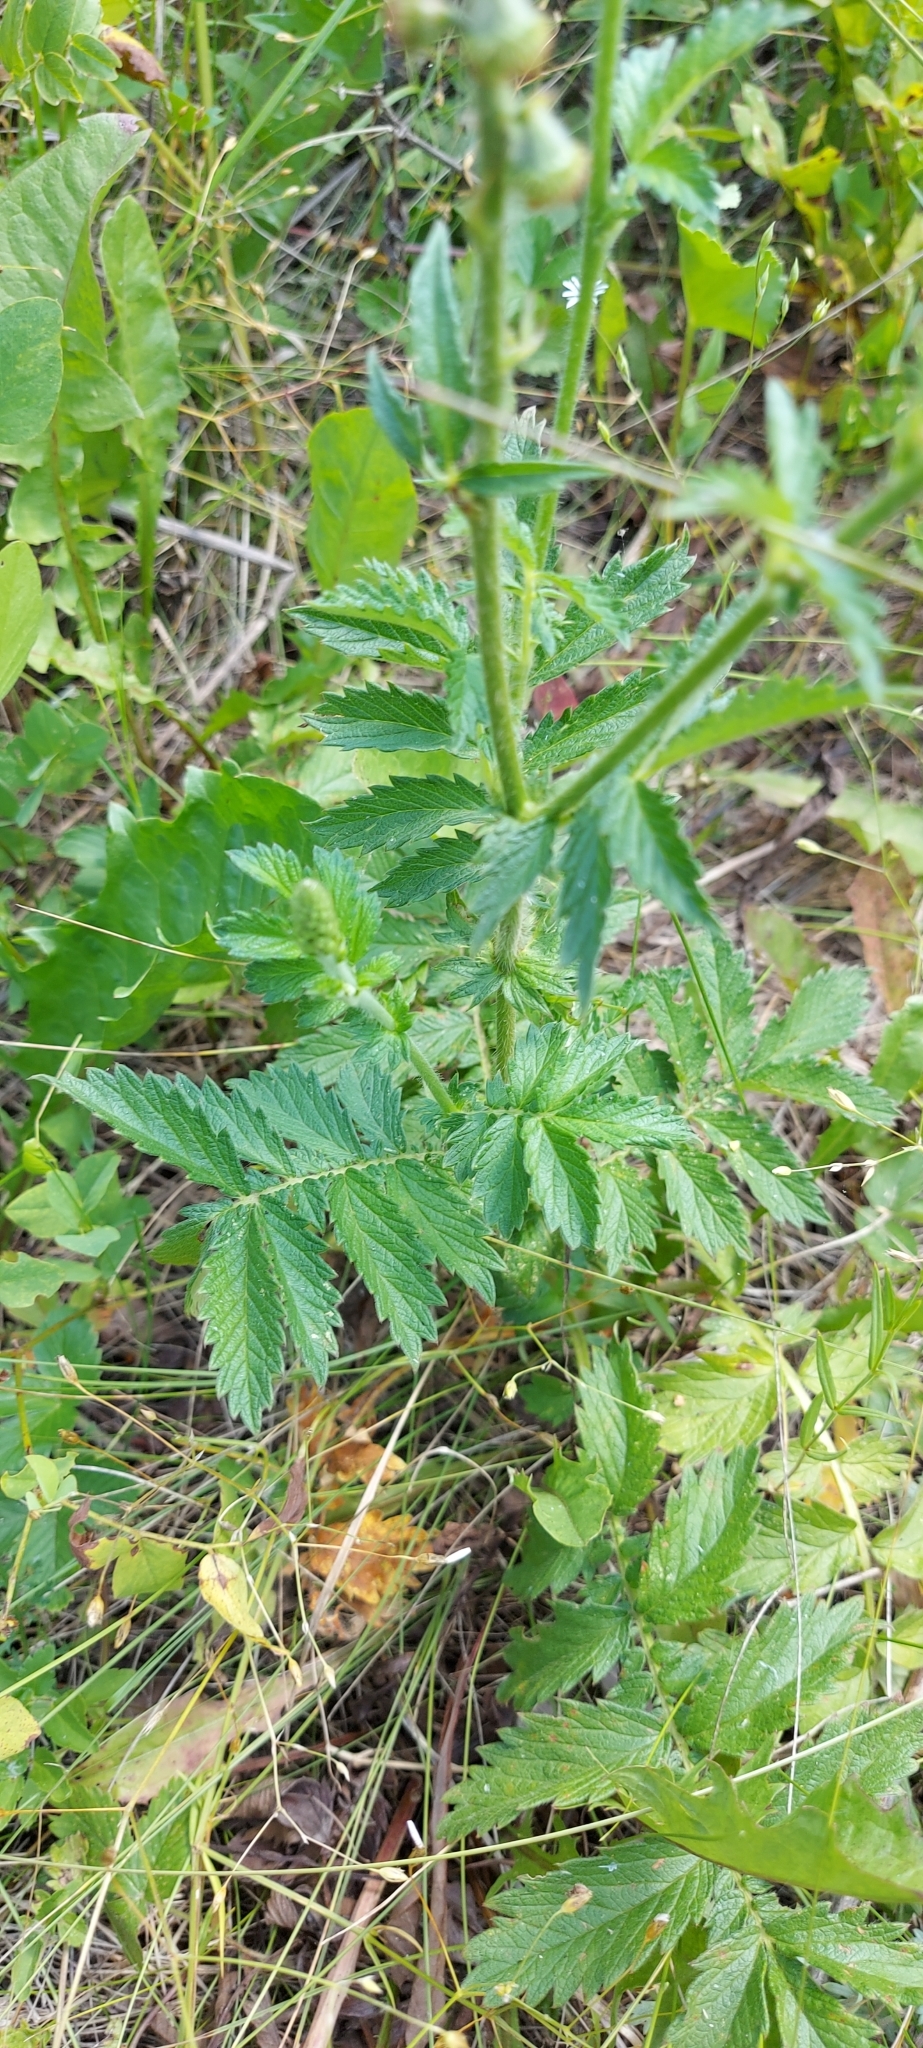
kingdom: Plantae
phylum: Tracheophyta
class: Magnoliopsida
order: Rosales
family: Rosaceae
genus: Agrimonia
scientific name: Agrimonia eupatoria
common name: Agrimony
